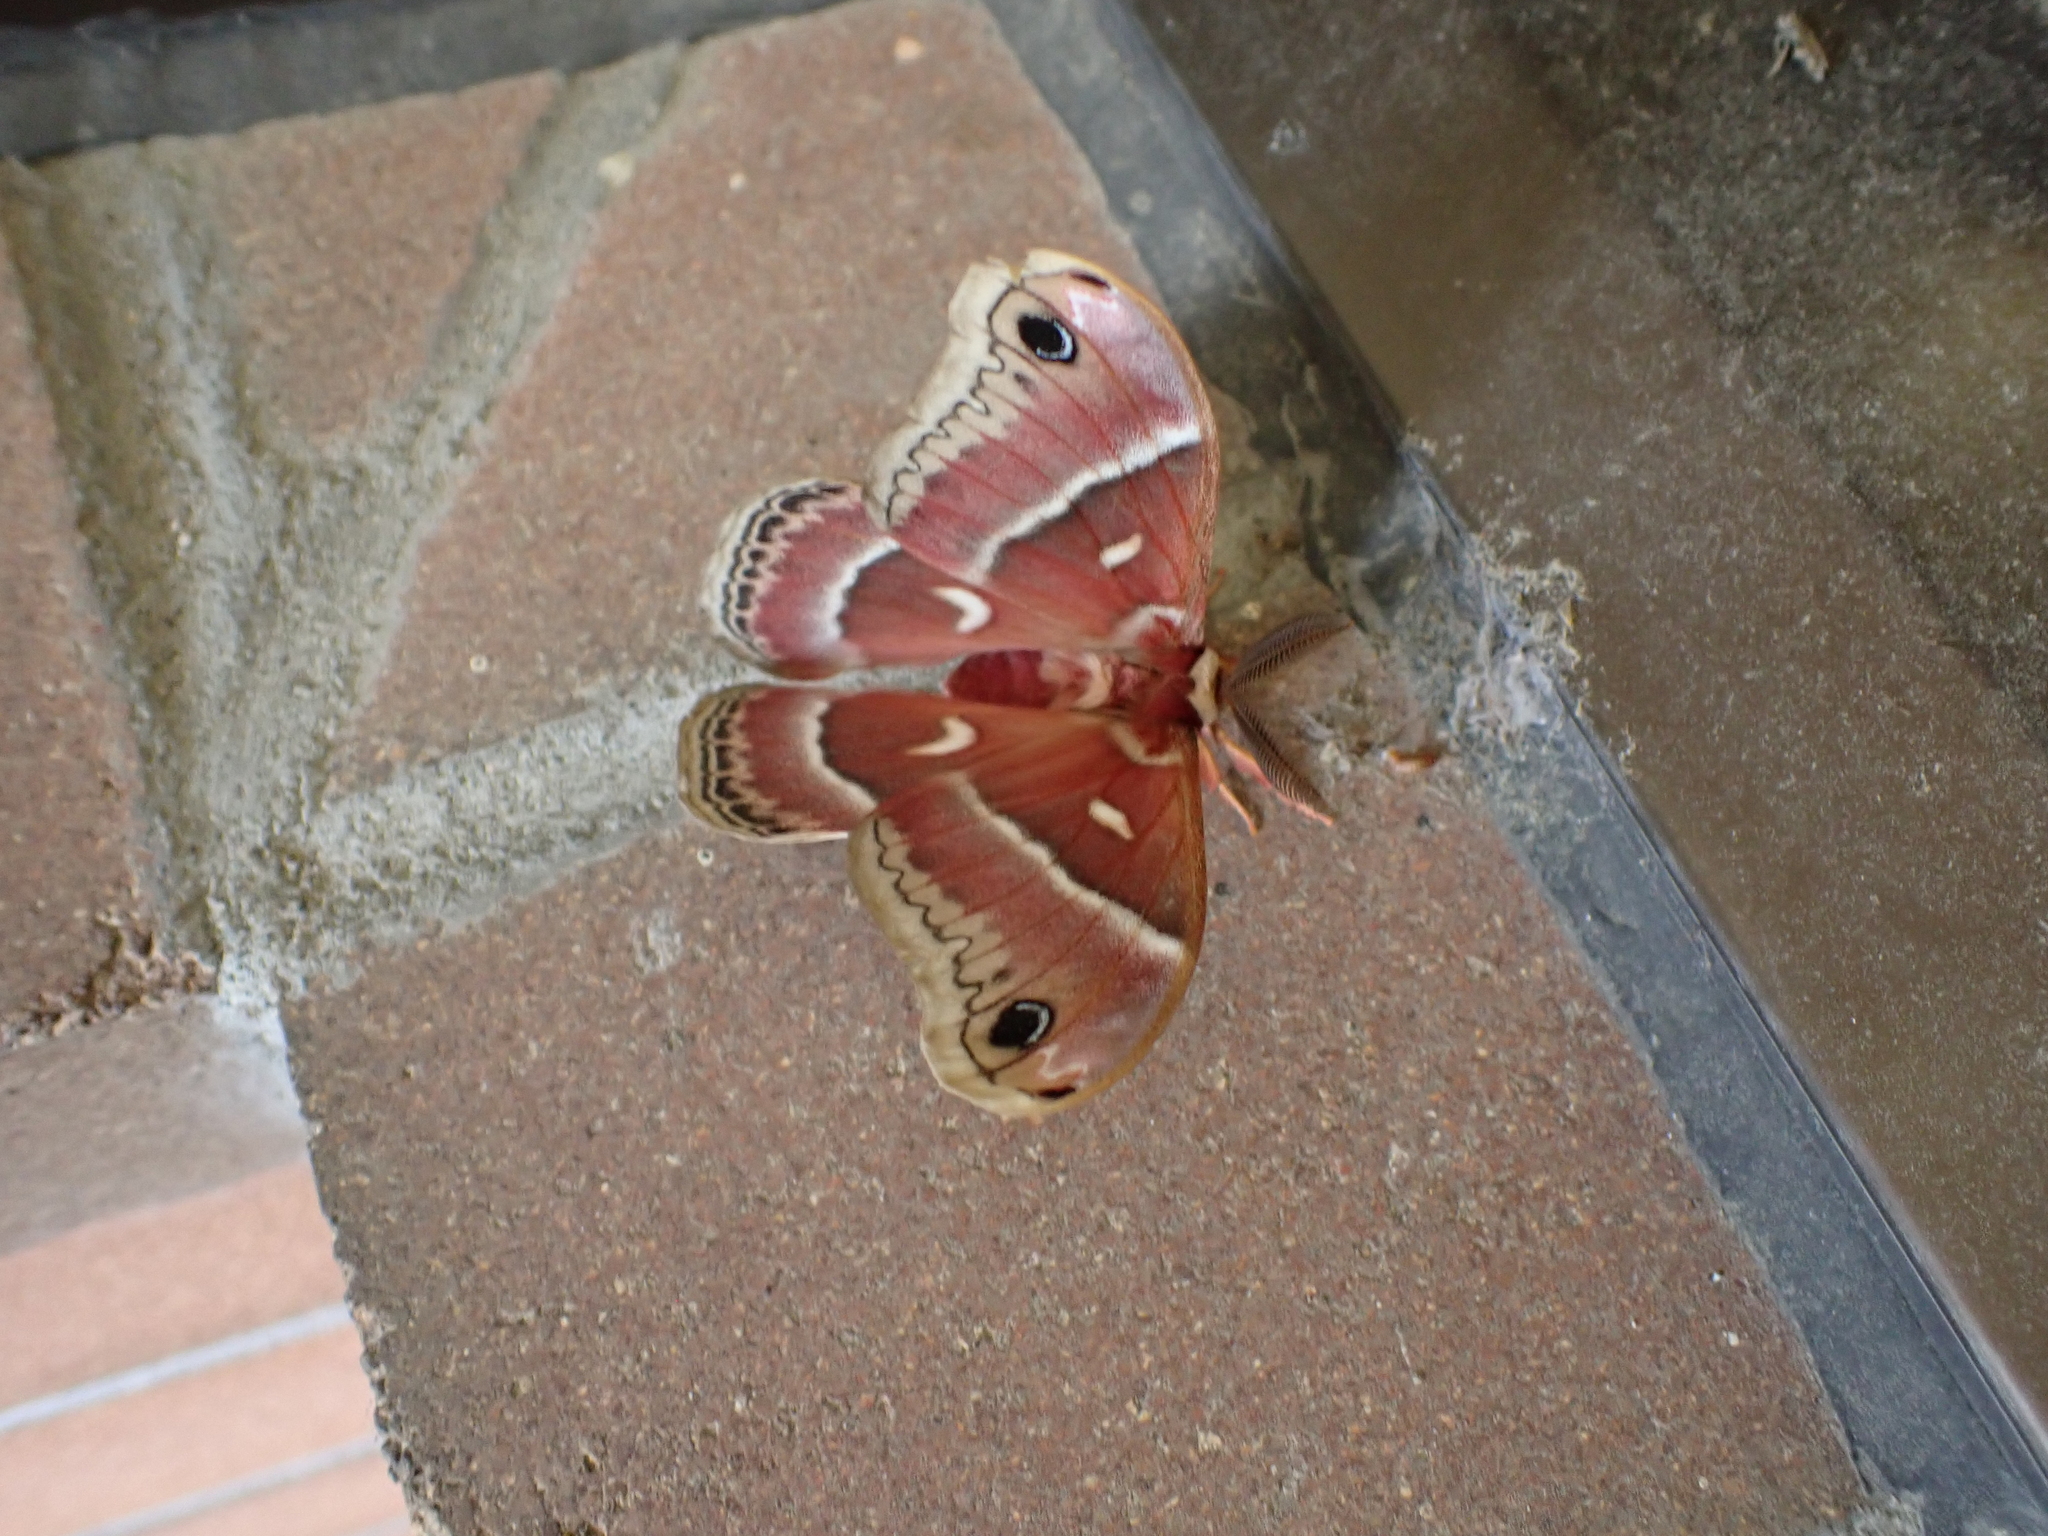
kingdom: Animalia
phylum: Arthropoda
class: Insecta
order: Lepidoptera
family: Saturniidae
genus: Hyalophora
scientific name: Hyalophora euryalus
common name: Ceanothus silkmoth
